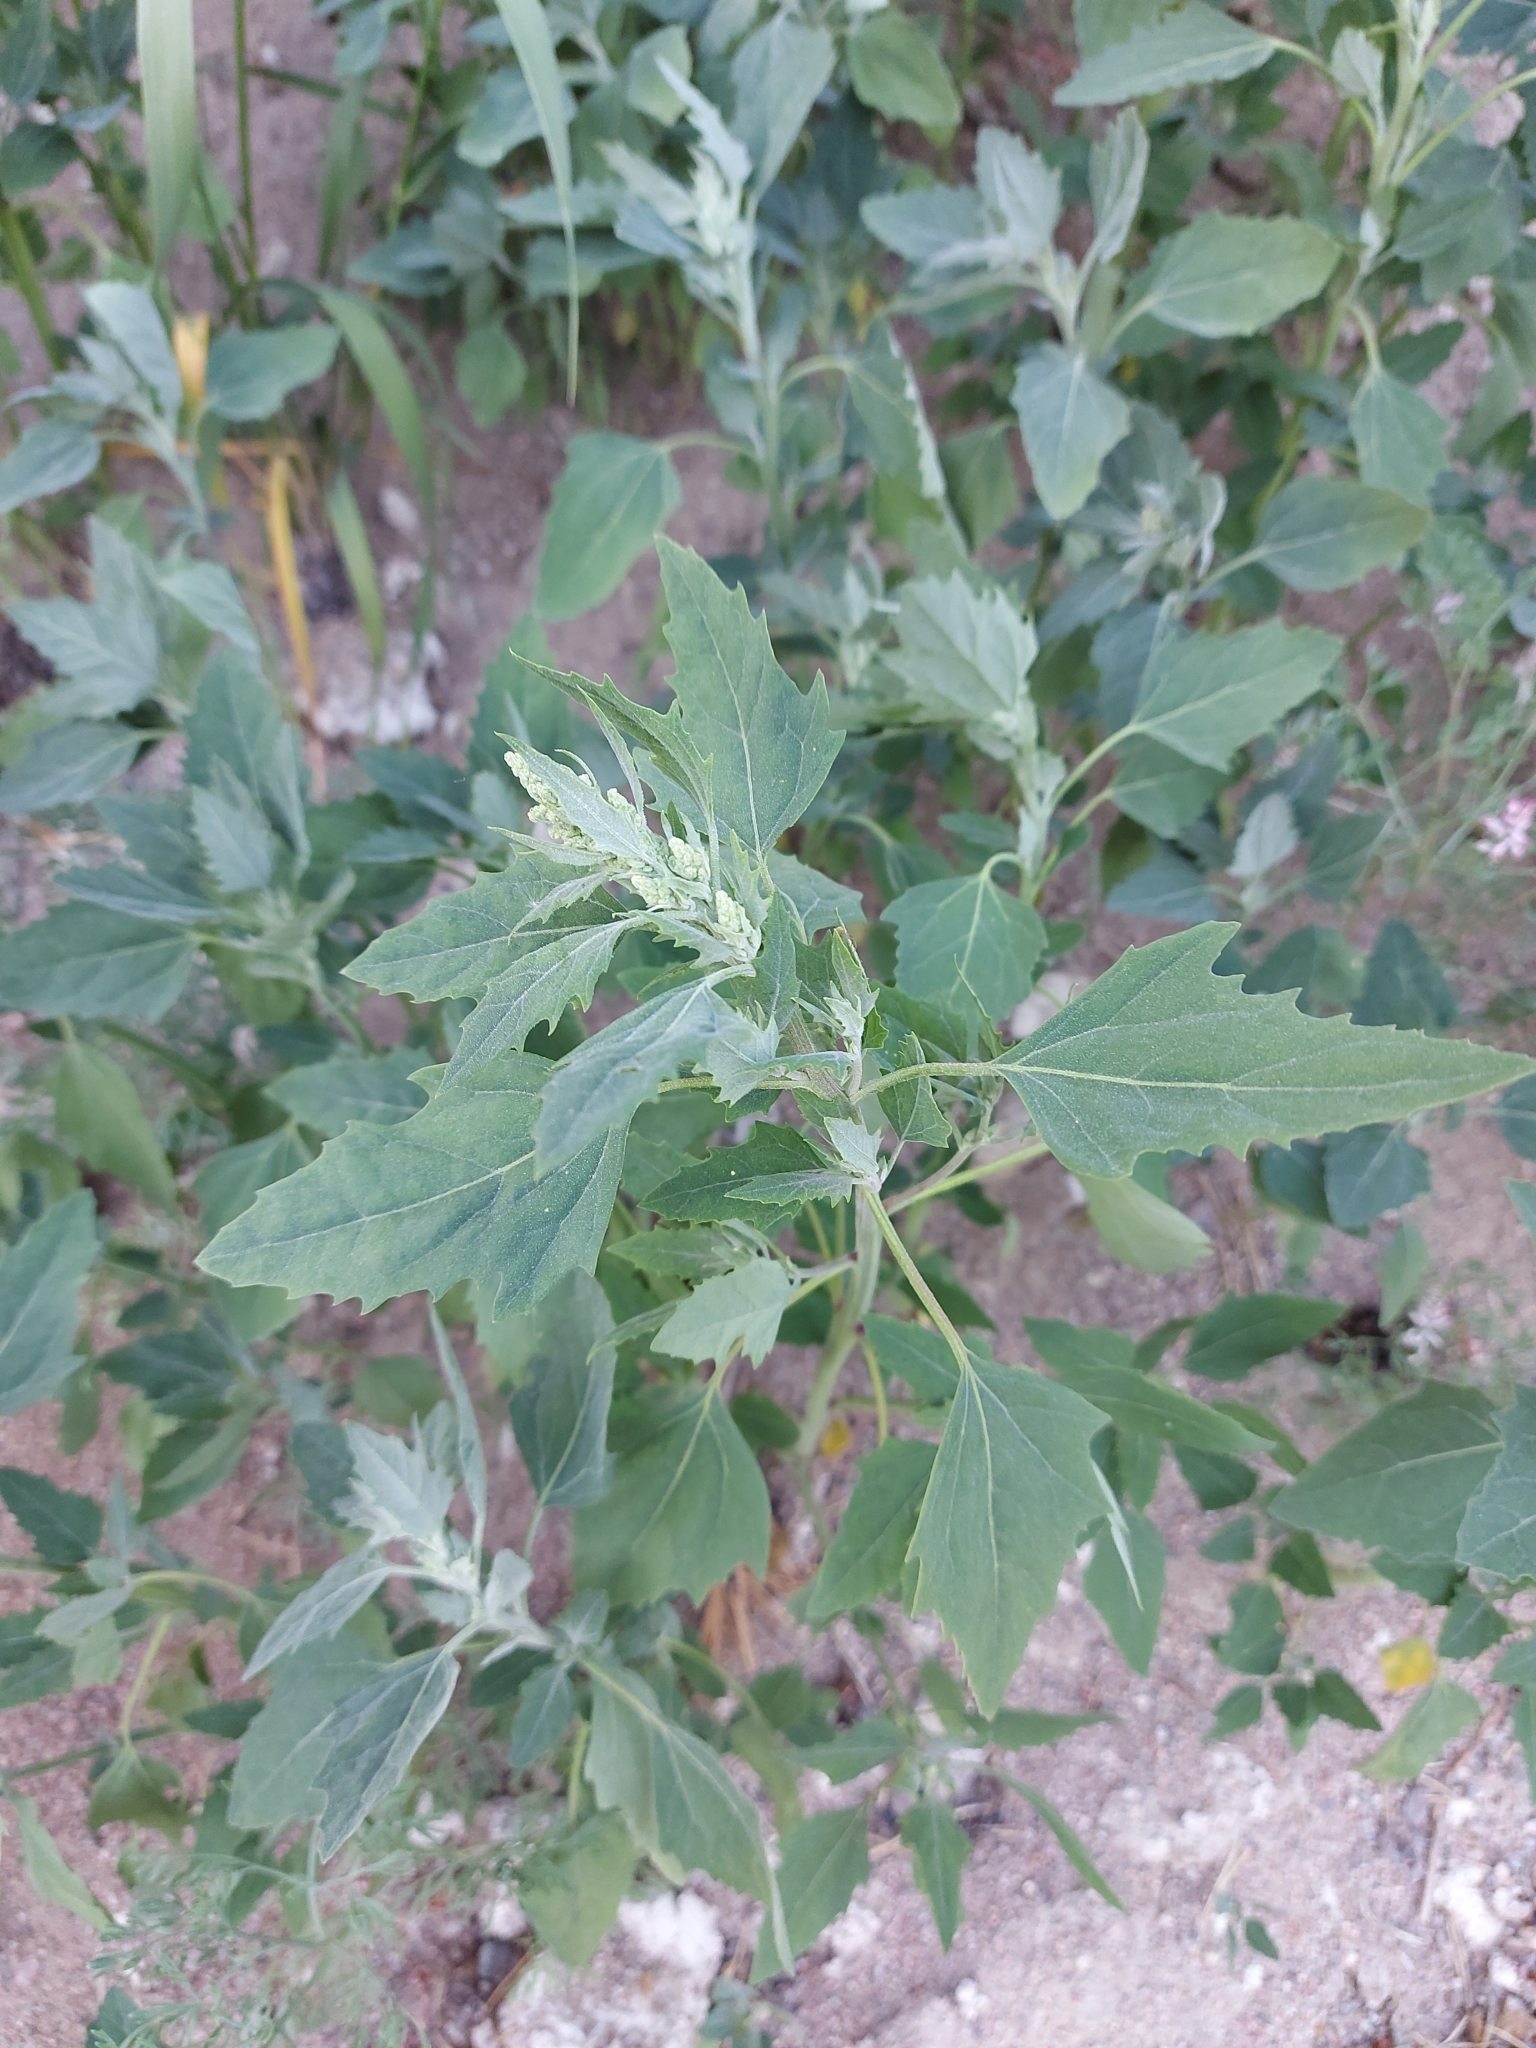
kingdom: Plantae
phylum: Tracheophyta
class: Magnoliopsida
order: Caryophyllales
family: Amaranthaceae
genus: Chenopodium
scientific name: Chenopodium album
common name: Fat-hen
